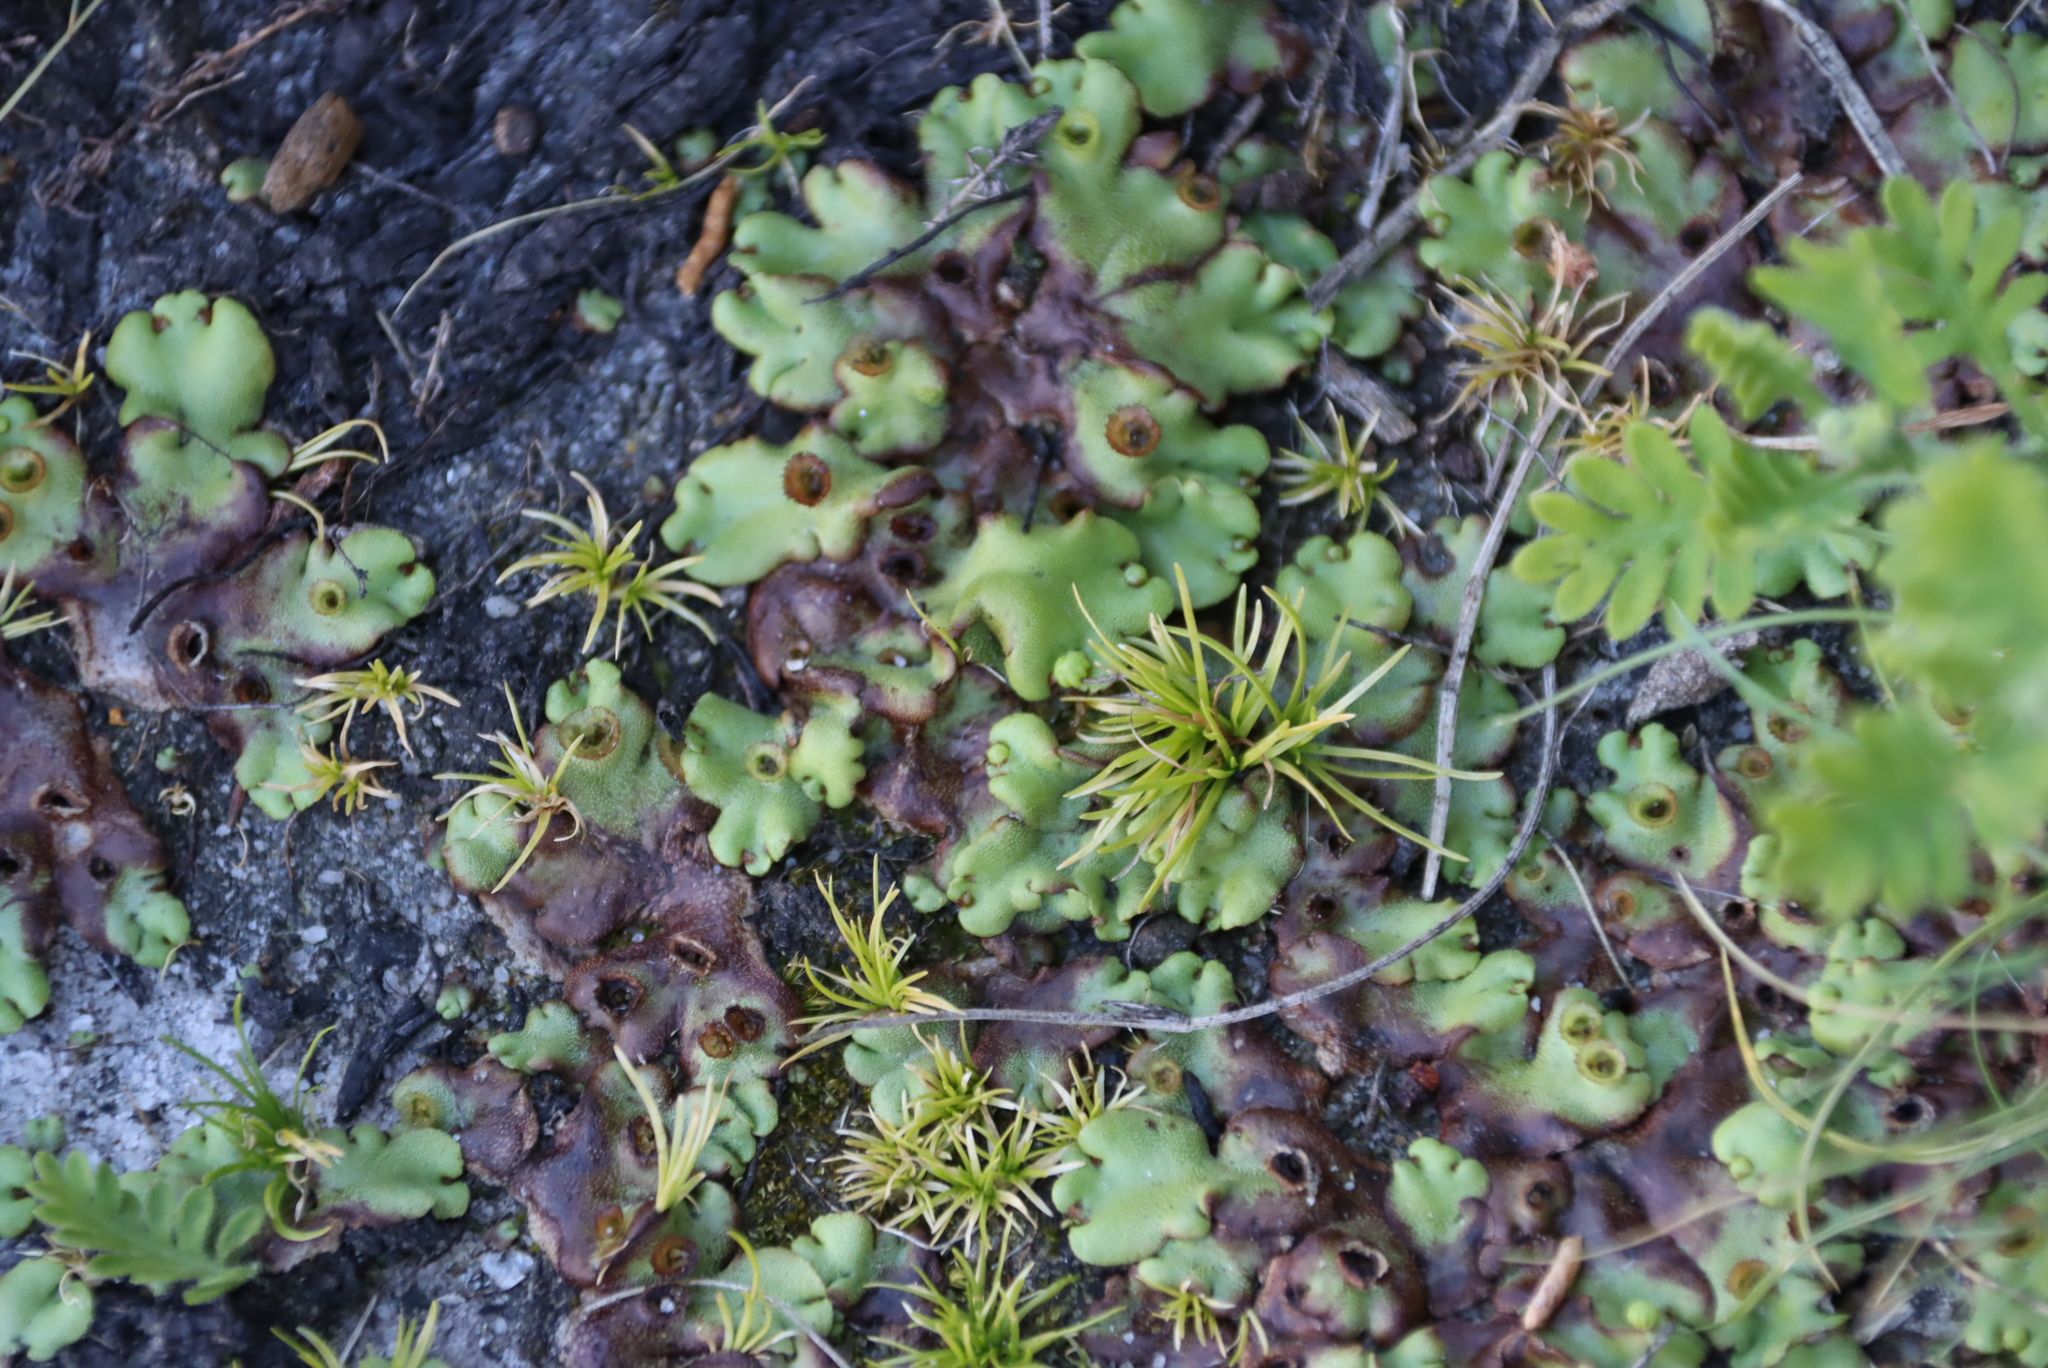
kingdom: Plantae
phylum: Marchantiophyta
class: Marchantiopsida
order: Marchantiales
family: Marchantiaceae
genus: Marchantia
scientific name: Marchantia berteroana
